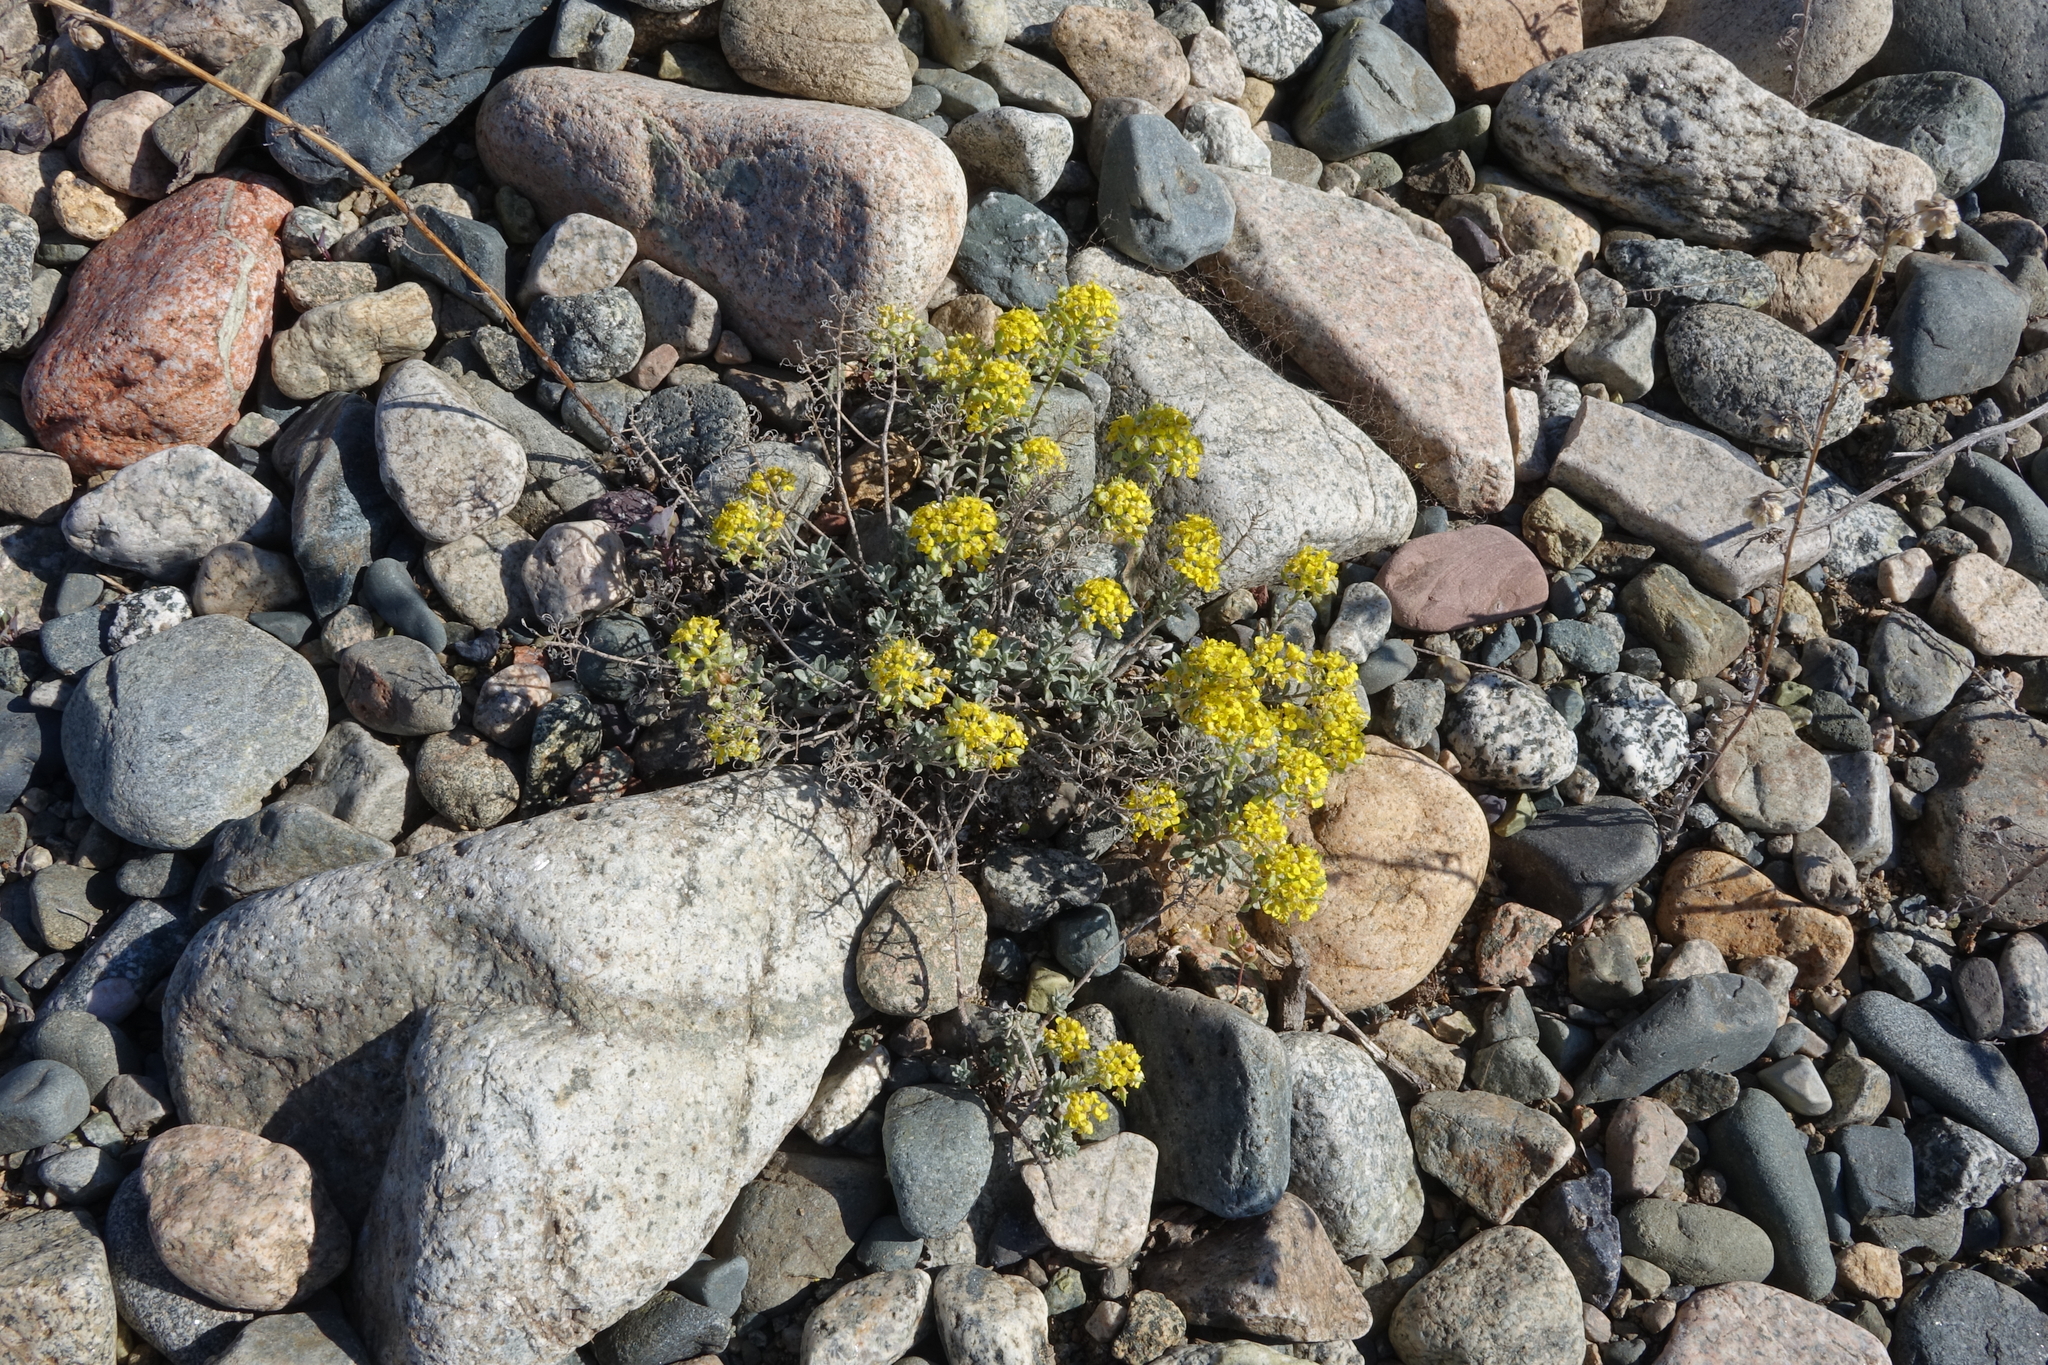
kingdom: Plantae
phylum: Tracheophyta
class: Magnoliopsida
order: Brassicales
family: Brassicaceae
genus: Odontarrhena
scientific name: Odontarrhena obovata
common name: American alyssum
